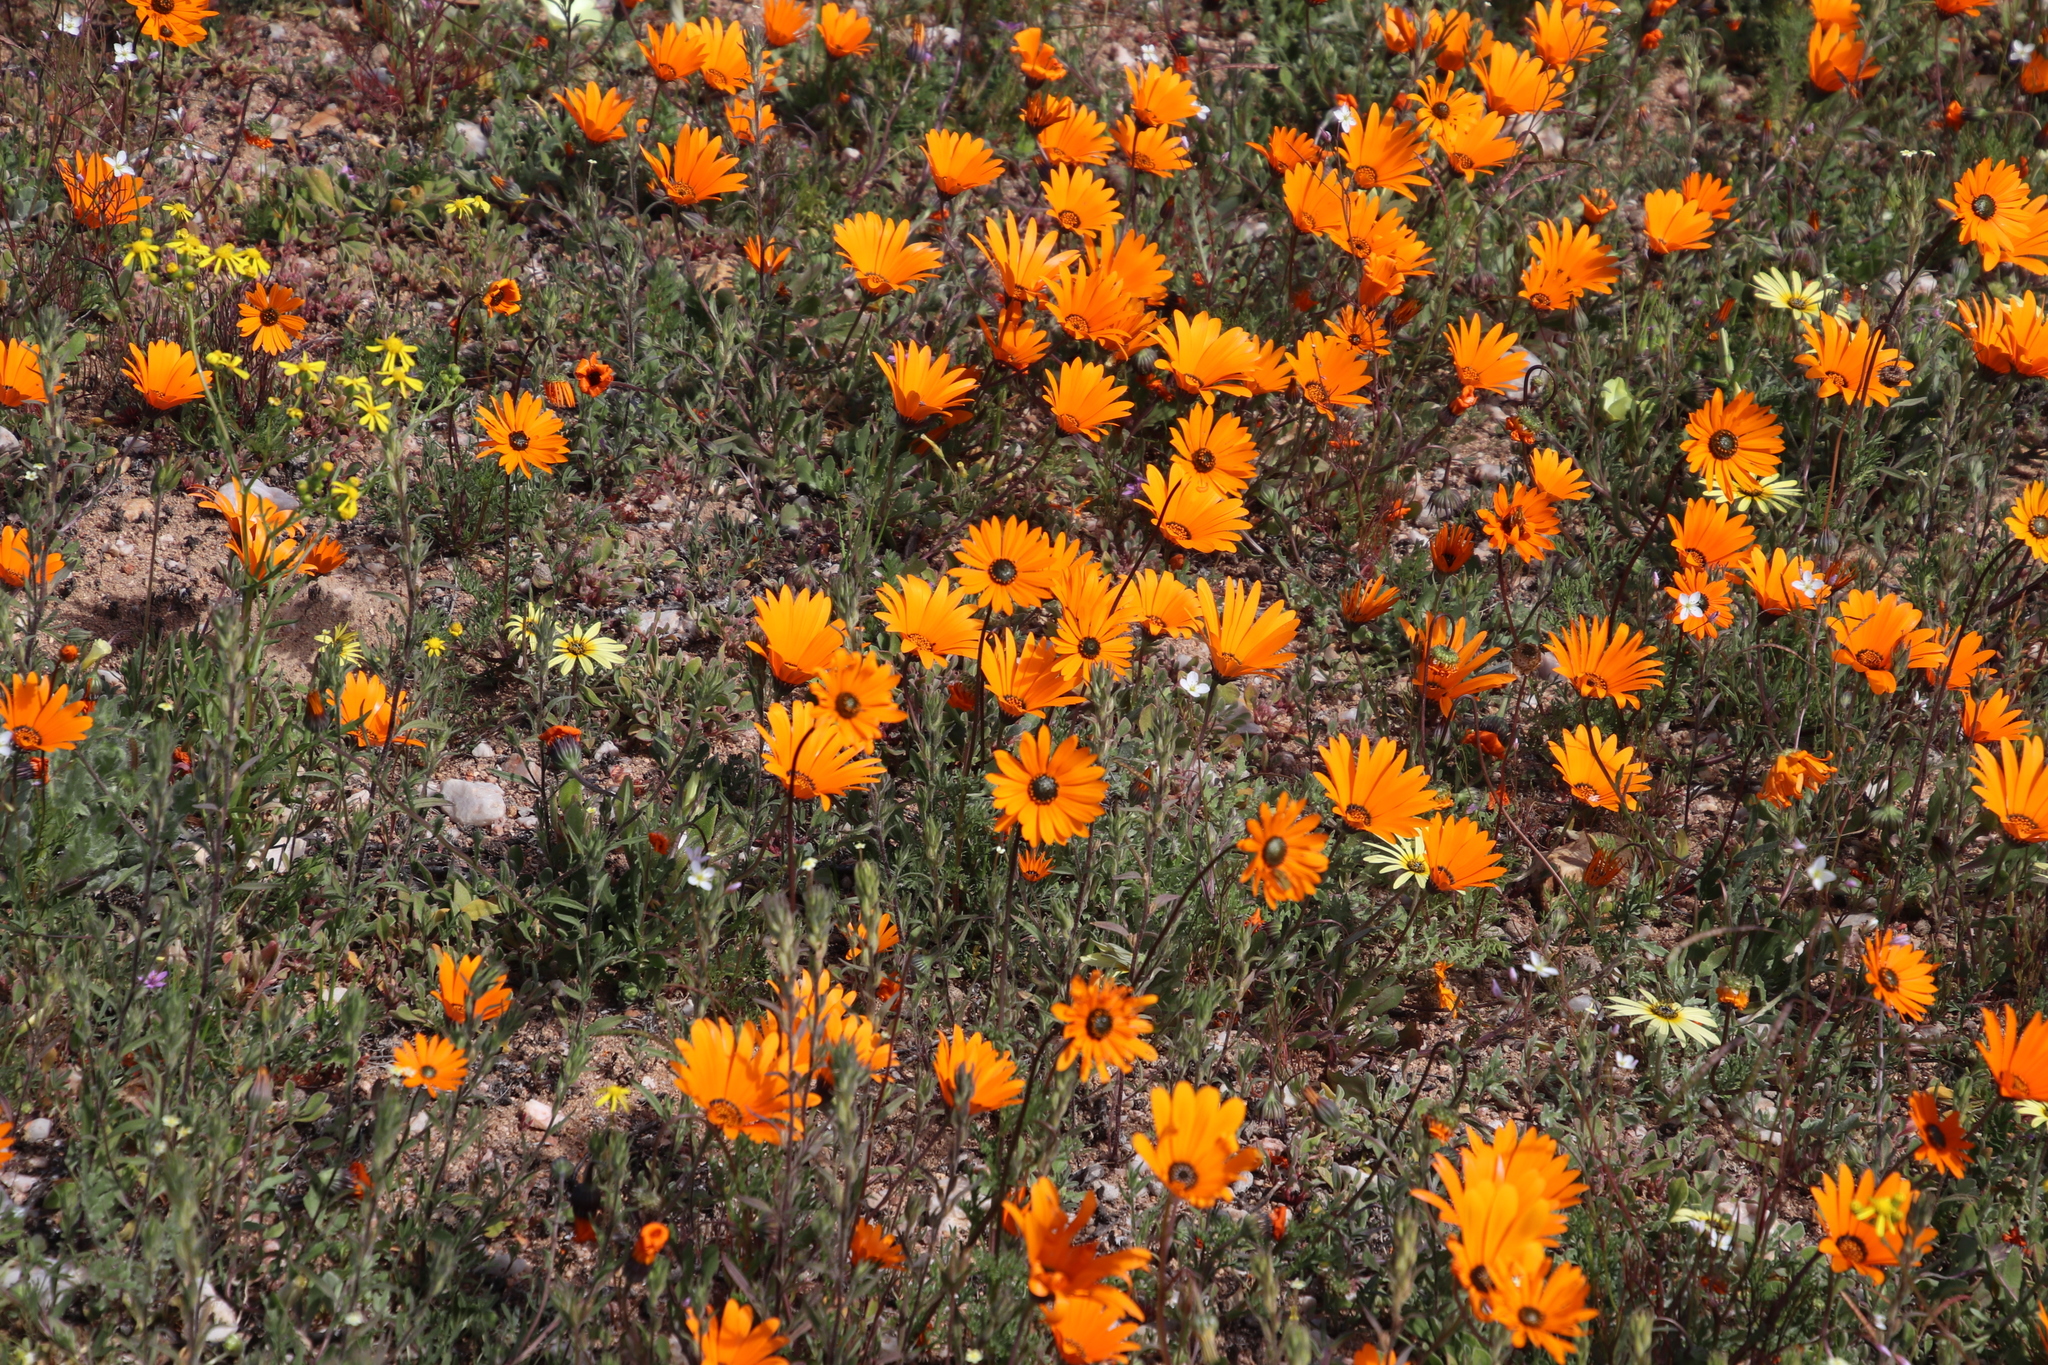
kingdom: Plantae
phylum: Tracheophyta
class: Magnoliopsida
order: Asterales
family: Asteraceae
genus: Dimorphotheca
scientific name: Dimorphotheca sinuata
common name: Glandular cape marigold
